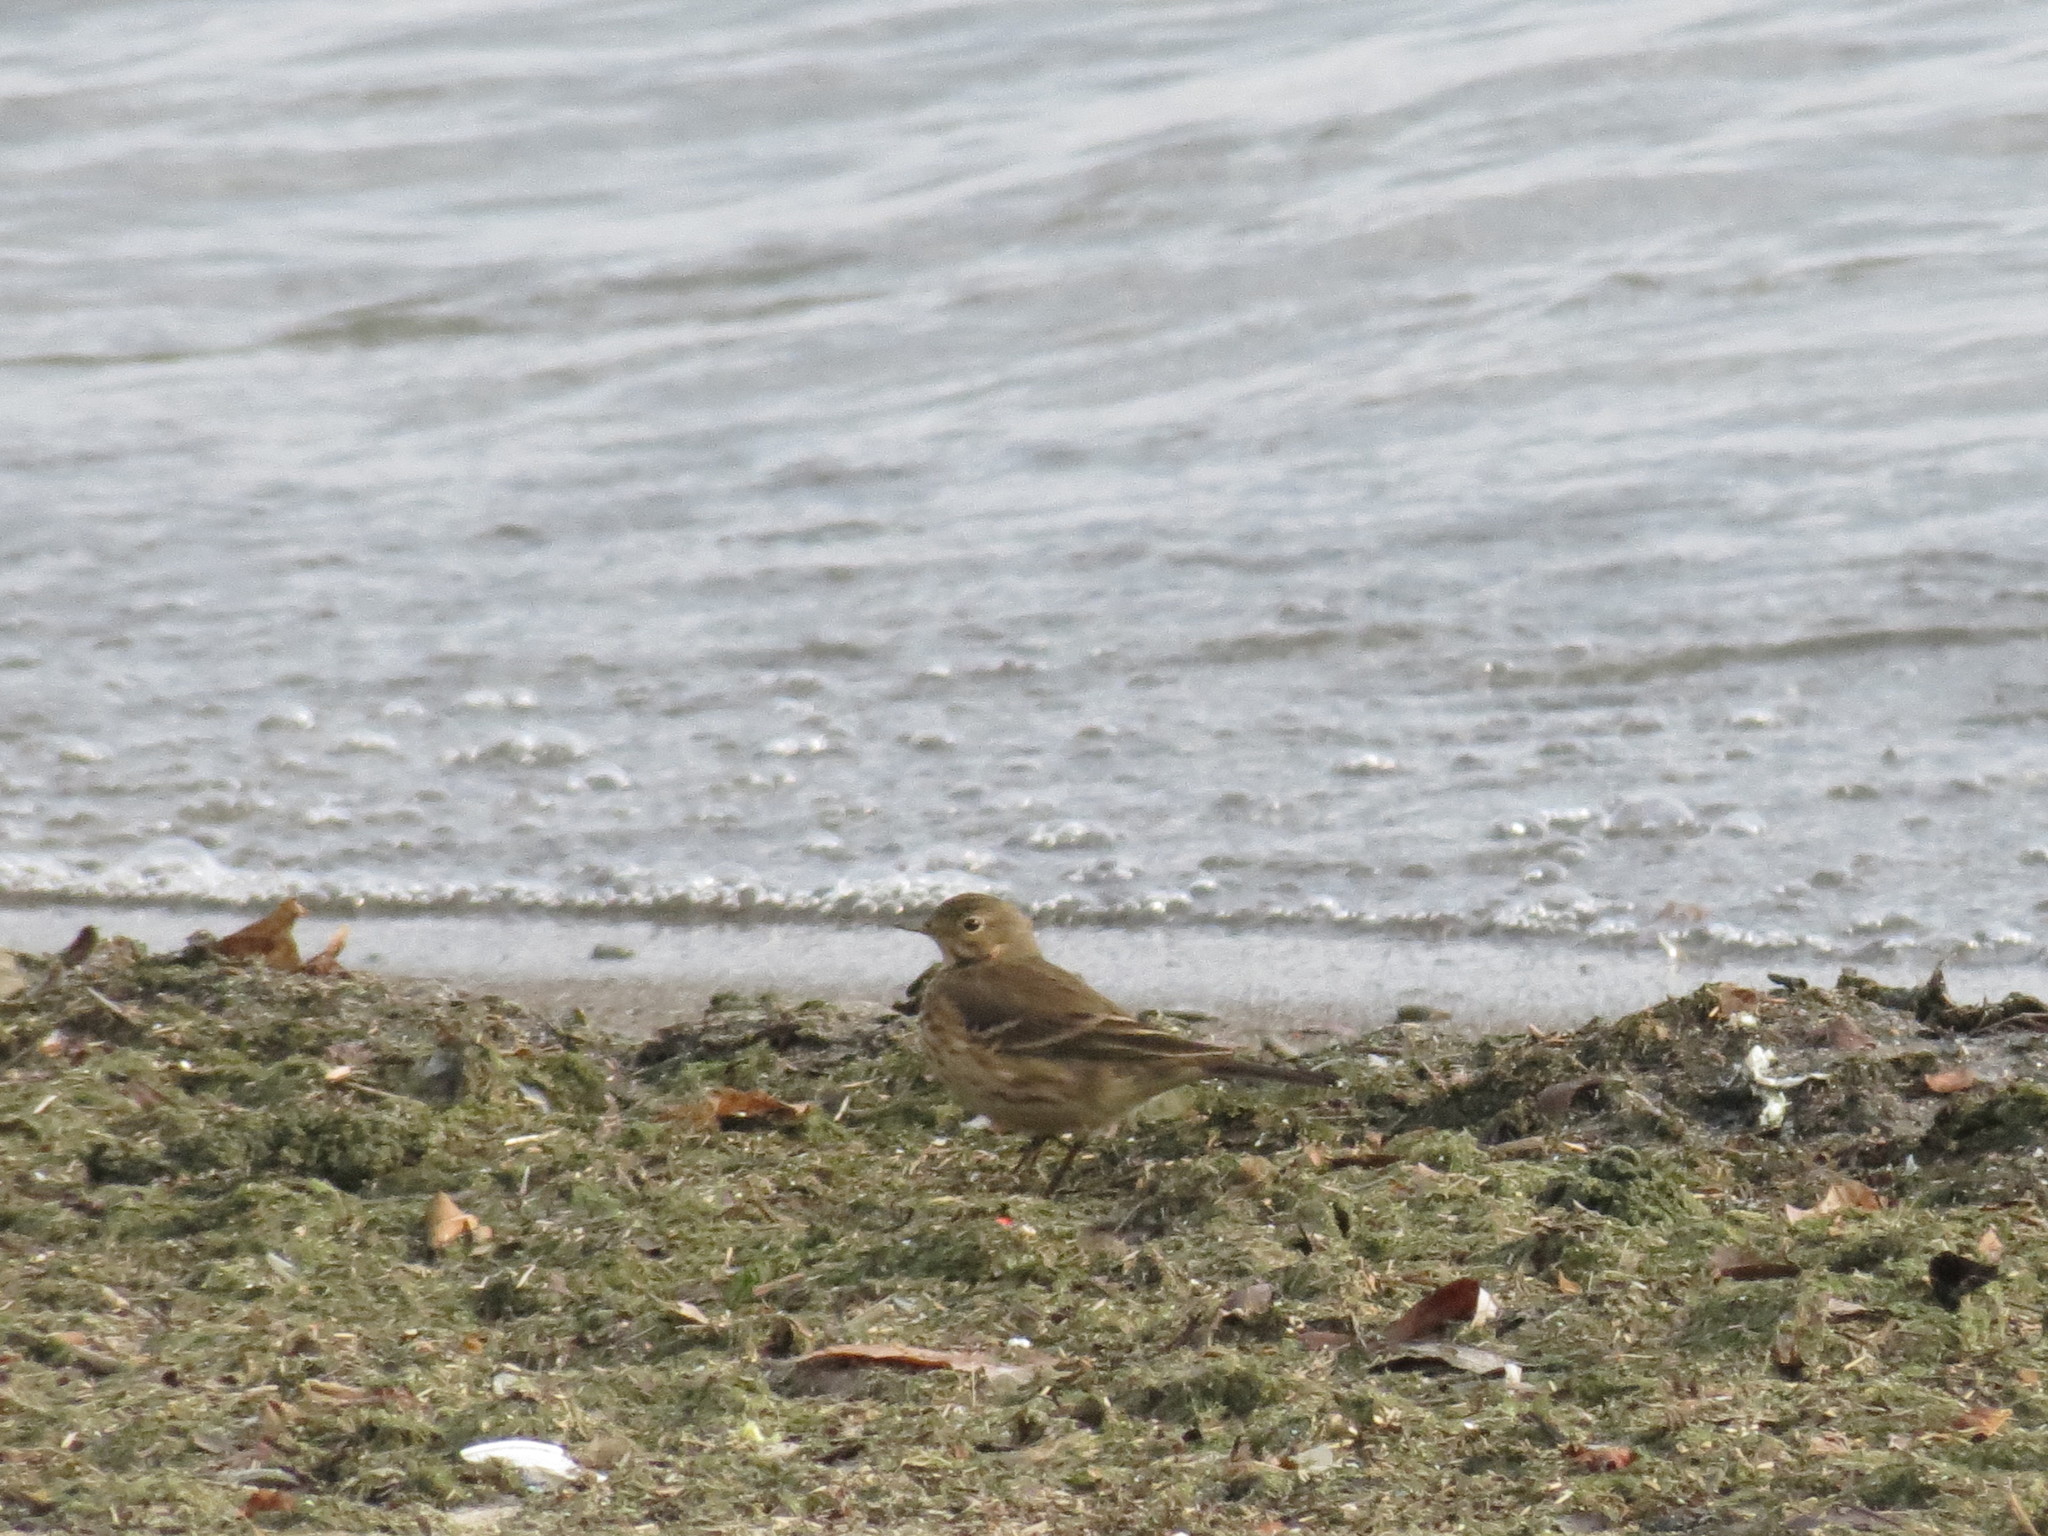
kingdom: Animalia
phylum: Chordata
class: Aves
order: Passeriformes
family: Motacillidae
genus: Anthus
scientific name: Anthus rubescens
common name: Buff-bellied pipit
